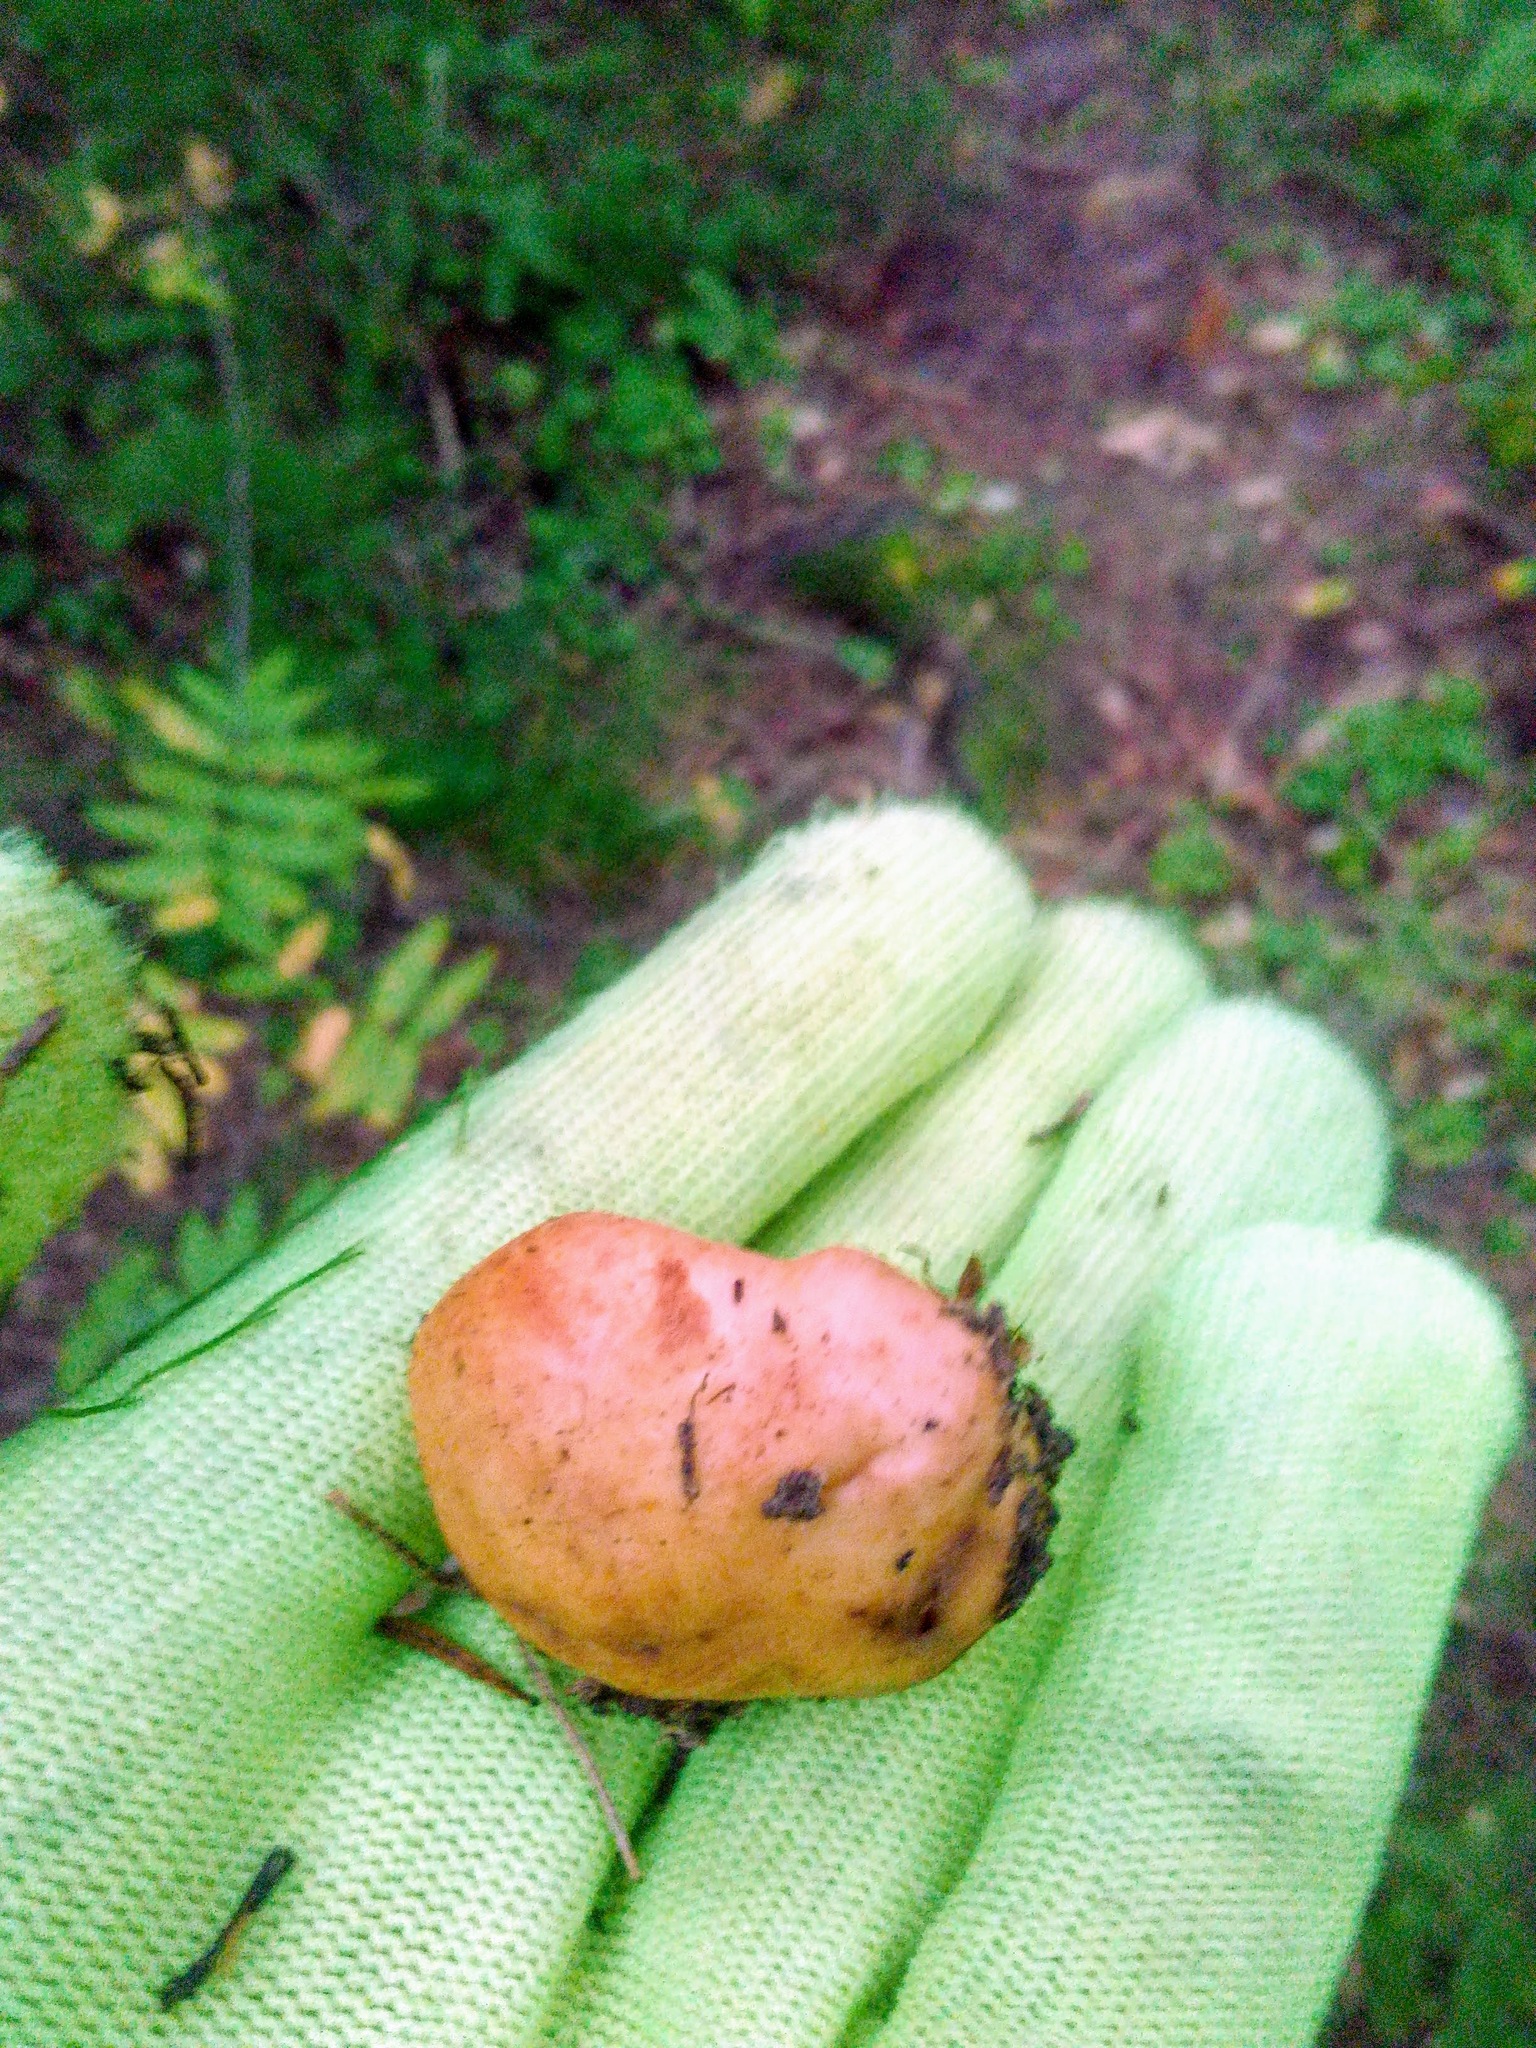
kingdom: Fungi
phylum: Basidiomycota
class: Agaricomycetes
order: Agaricales
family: Tricholomataceae
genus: Tricholoma
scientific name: Tricholoma fulvum
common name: Birch knight
